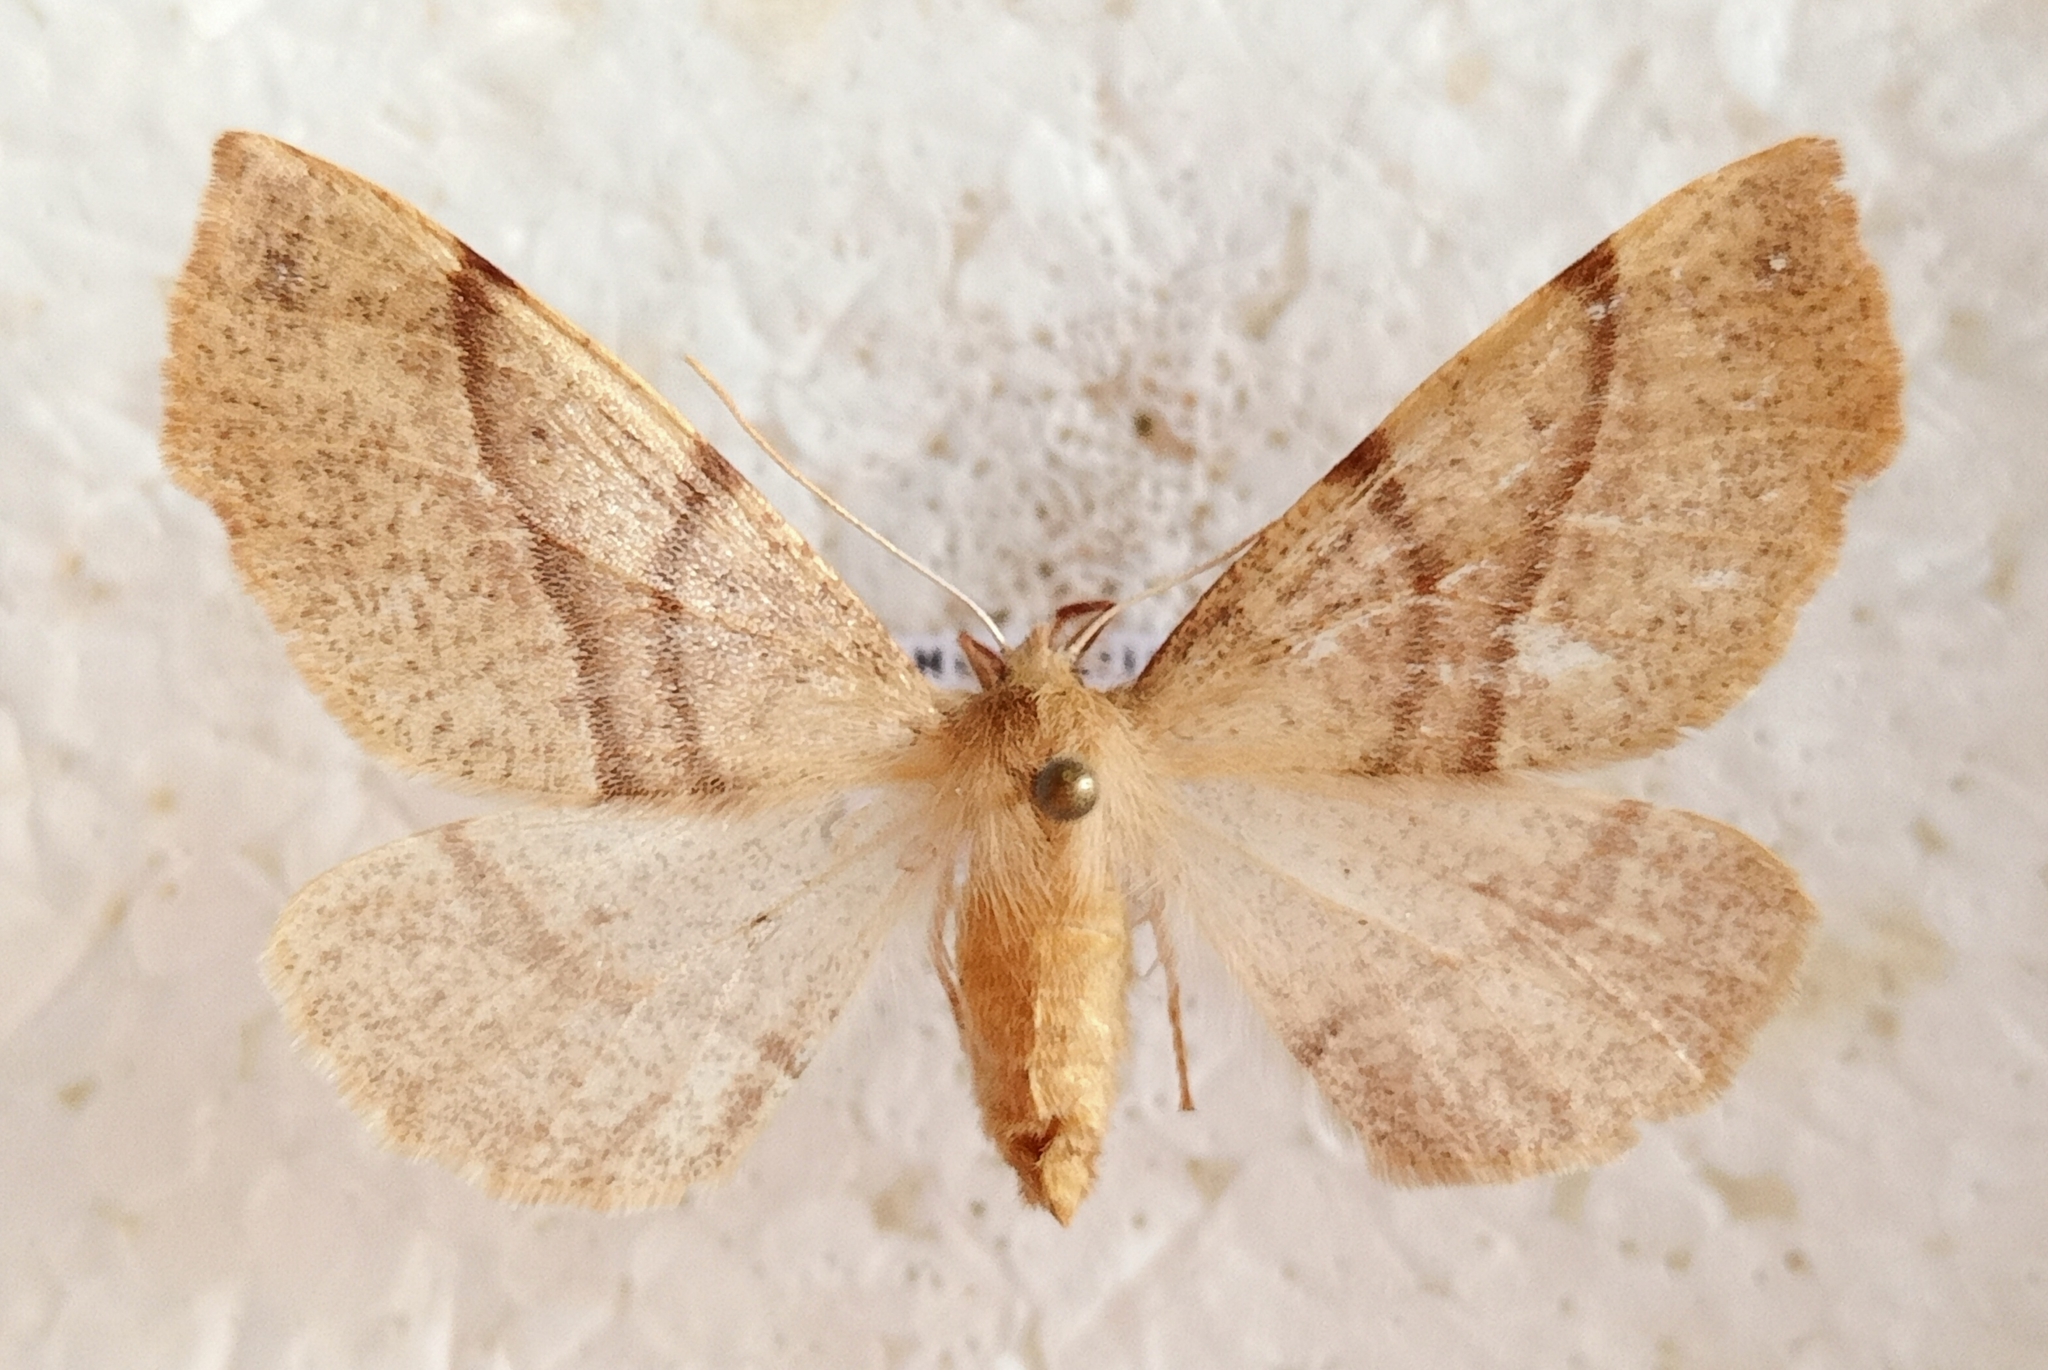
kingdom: Animalia
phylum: Arthropoda
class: Insecta
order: Lepidoptera
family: Geometridae
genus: Colotois
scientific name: Colotois pennaria
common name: Feathered thorn
